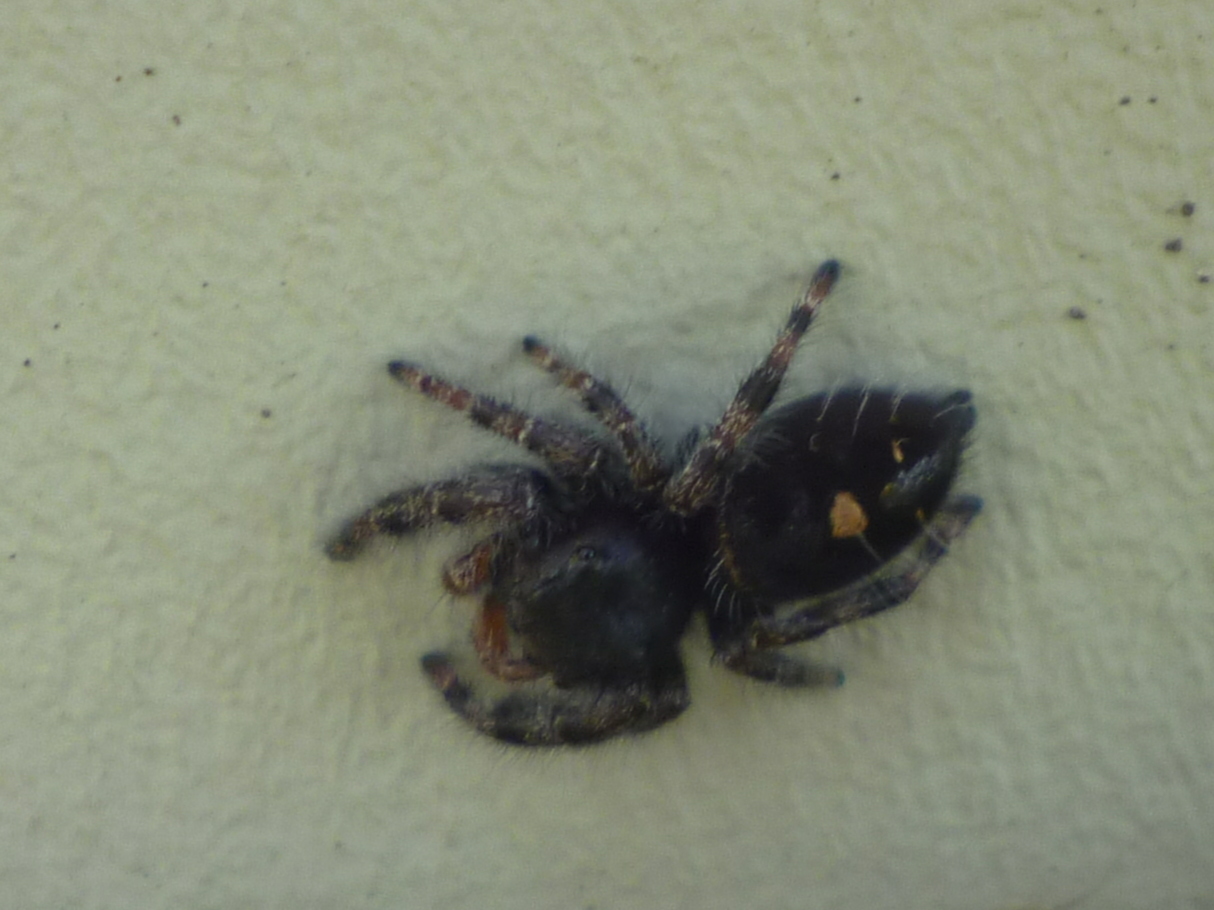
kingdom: Animalia
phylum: Arthropoda
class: Arachnida
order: Araneae
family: Salticidae
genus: Phidippus
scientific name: Phidippus audax
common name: Bold jumper
